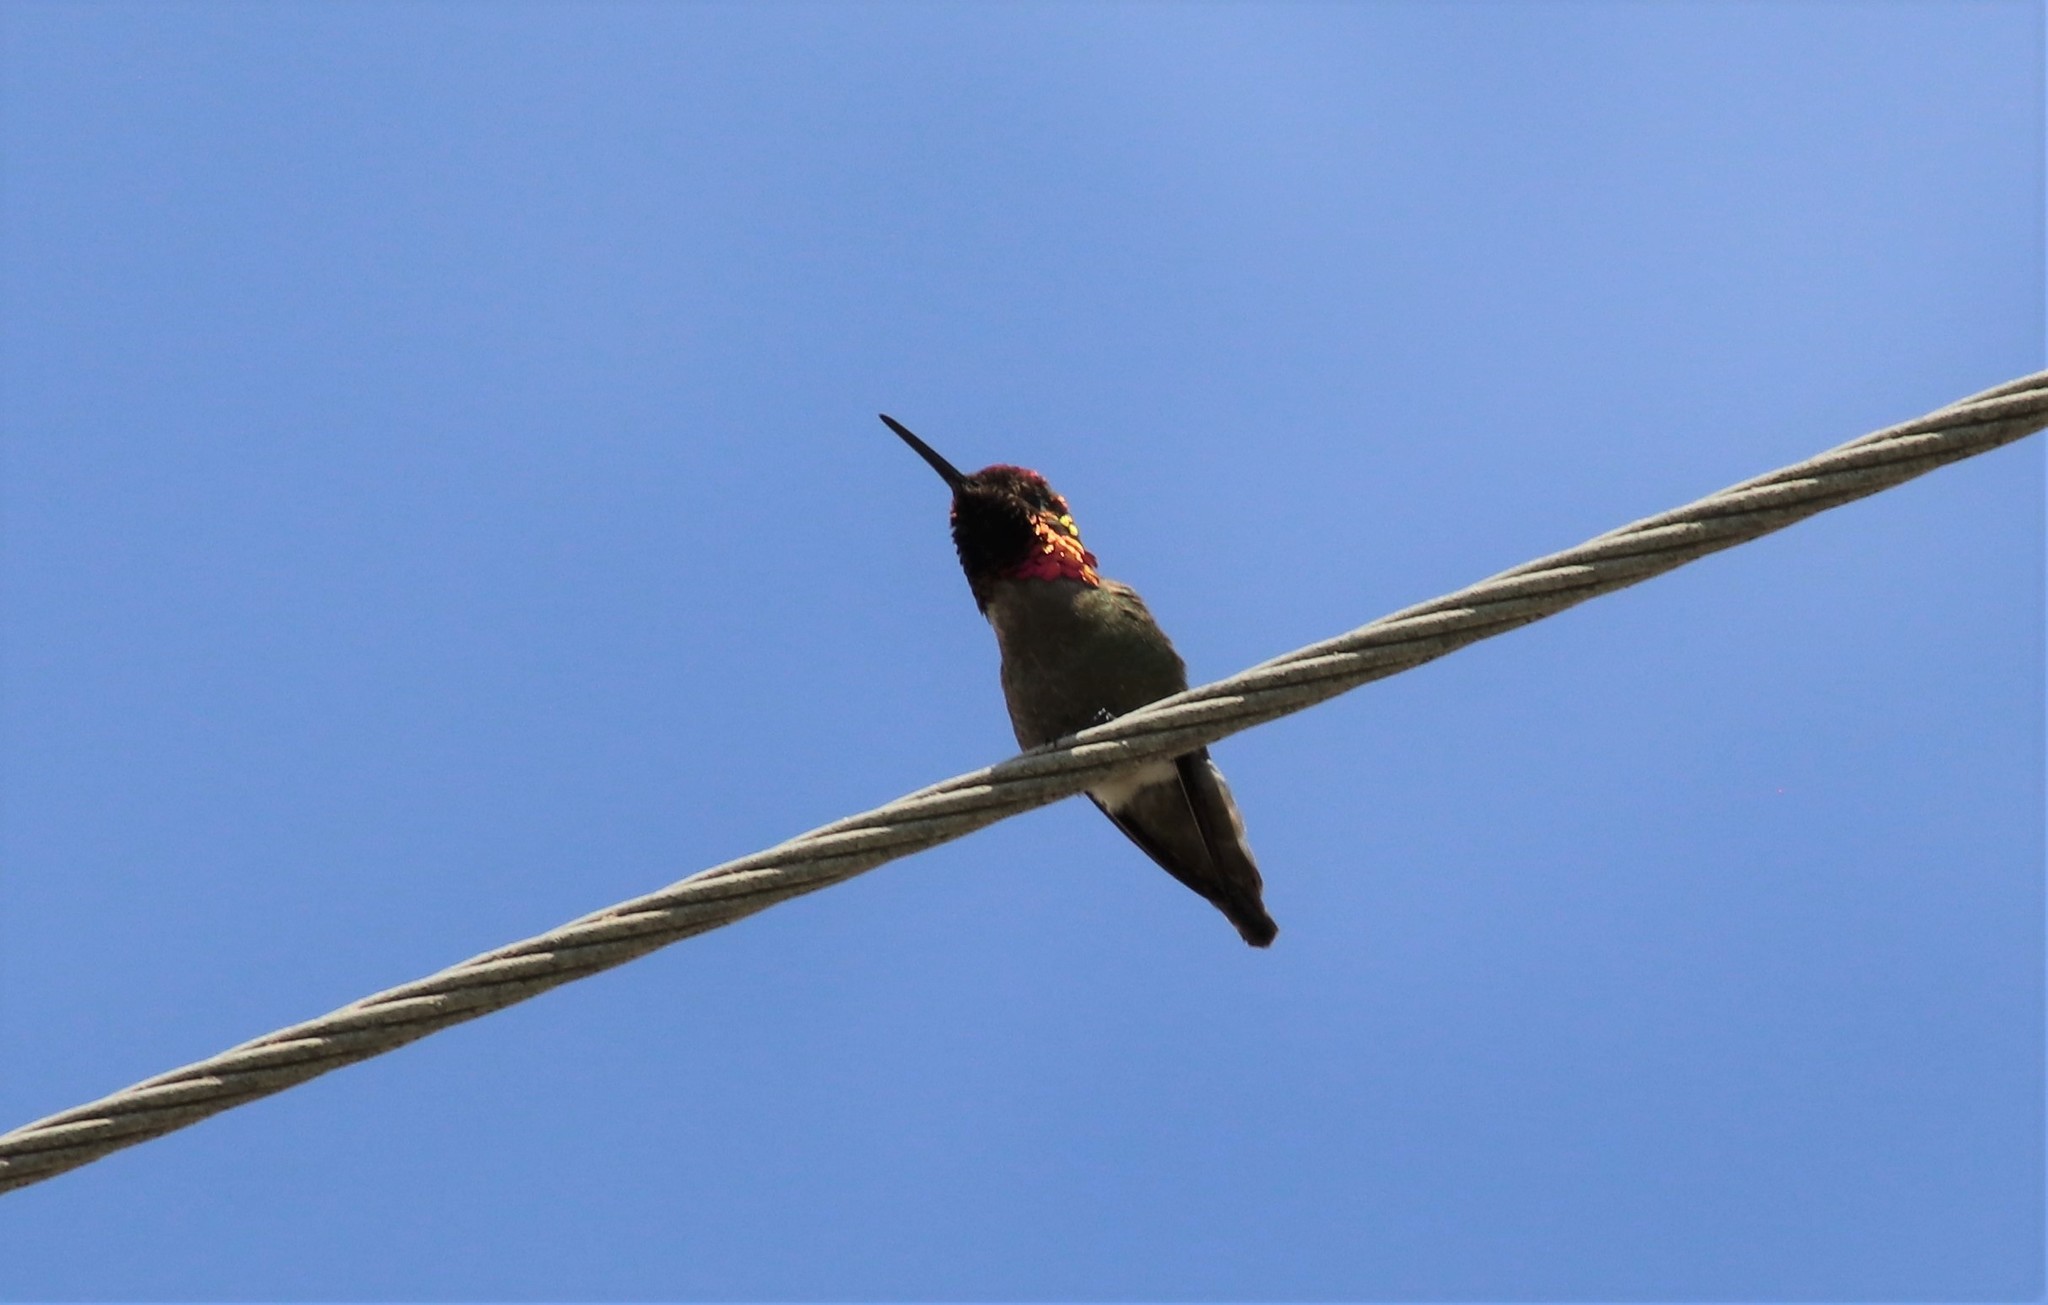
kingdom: Animalia
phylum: Chordata
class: Aves
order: Apodiformes
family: Trochilidae
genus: Calypte
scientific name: Calypte anna
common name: Anna's hummingbird
